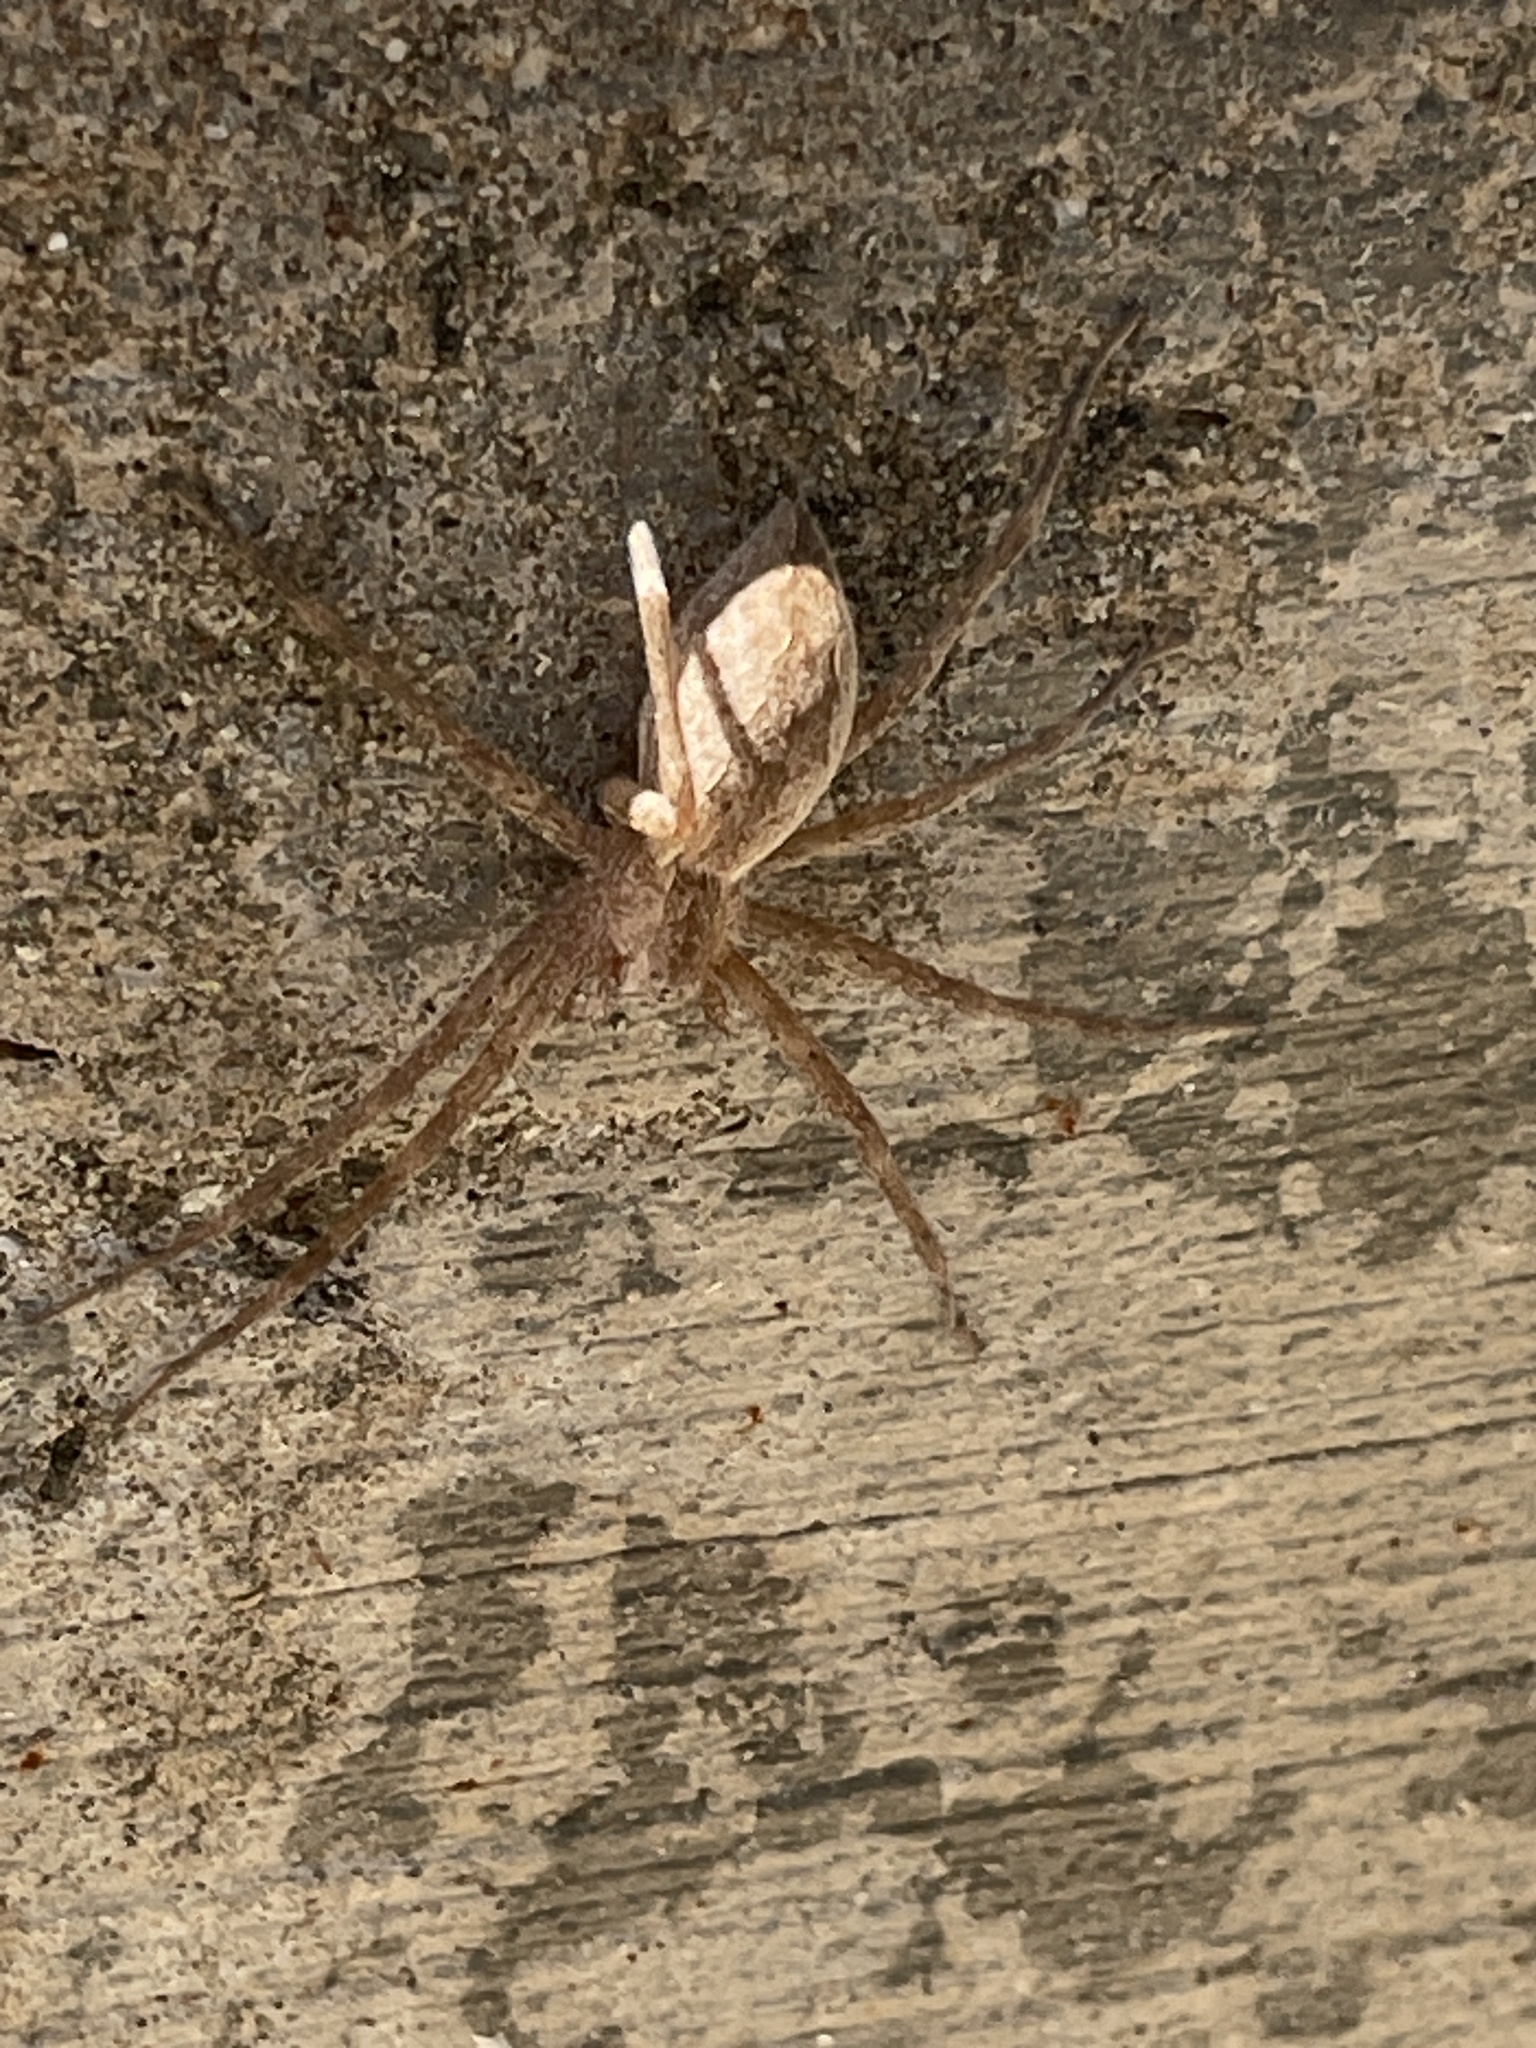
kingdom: Animalia
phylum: Arthropoda
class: Arachnida
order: Araneae
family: Pisauridae
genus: Pisaurina
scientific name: Pisaurina mira
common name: American nursery web spider
